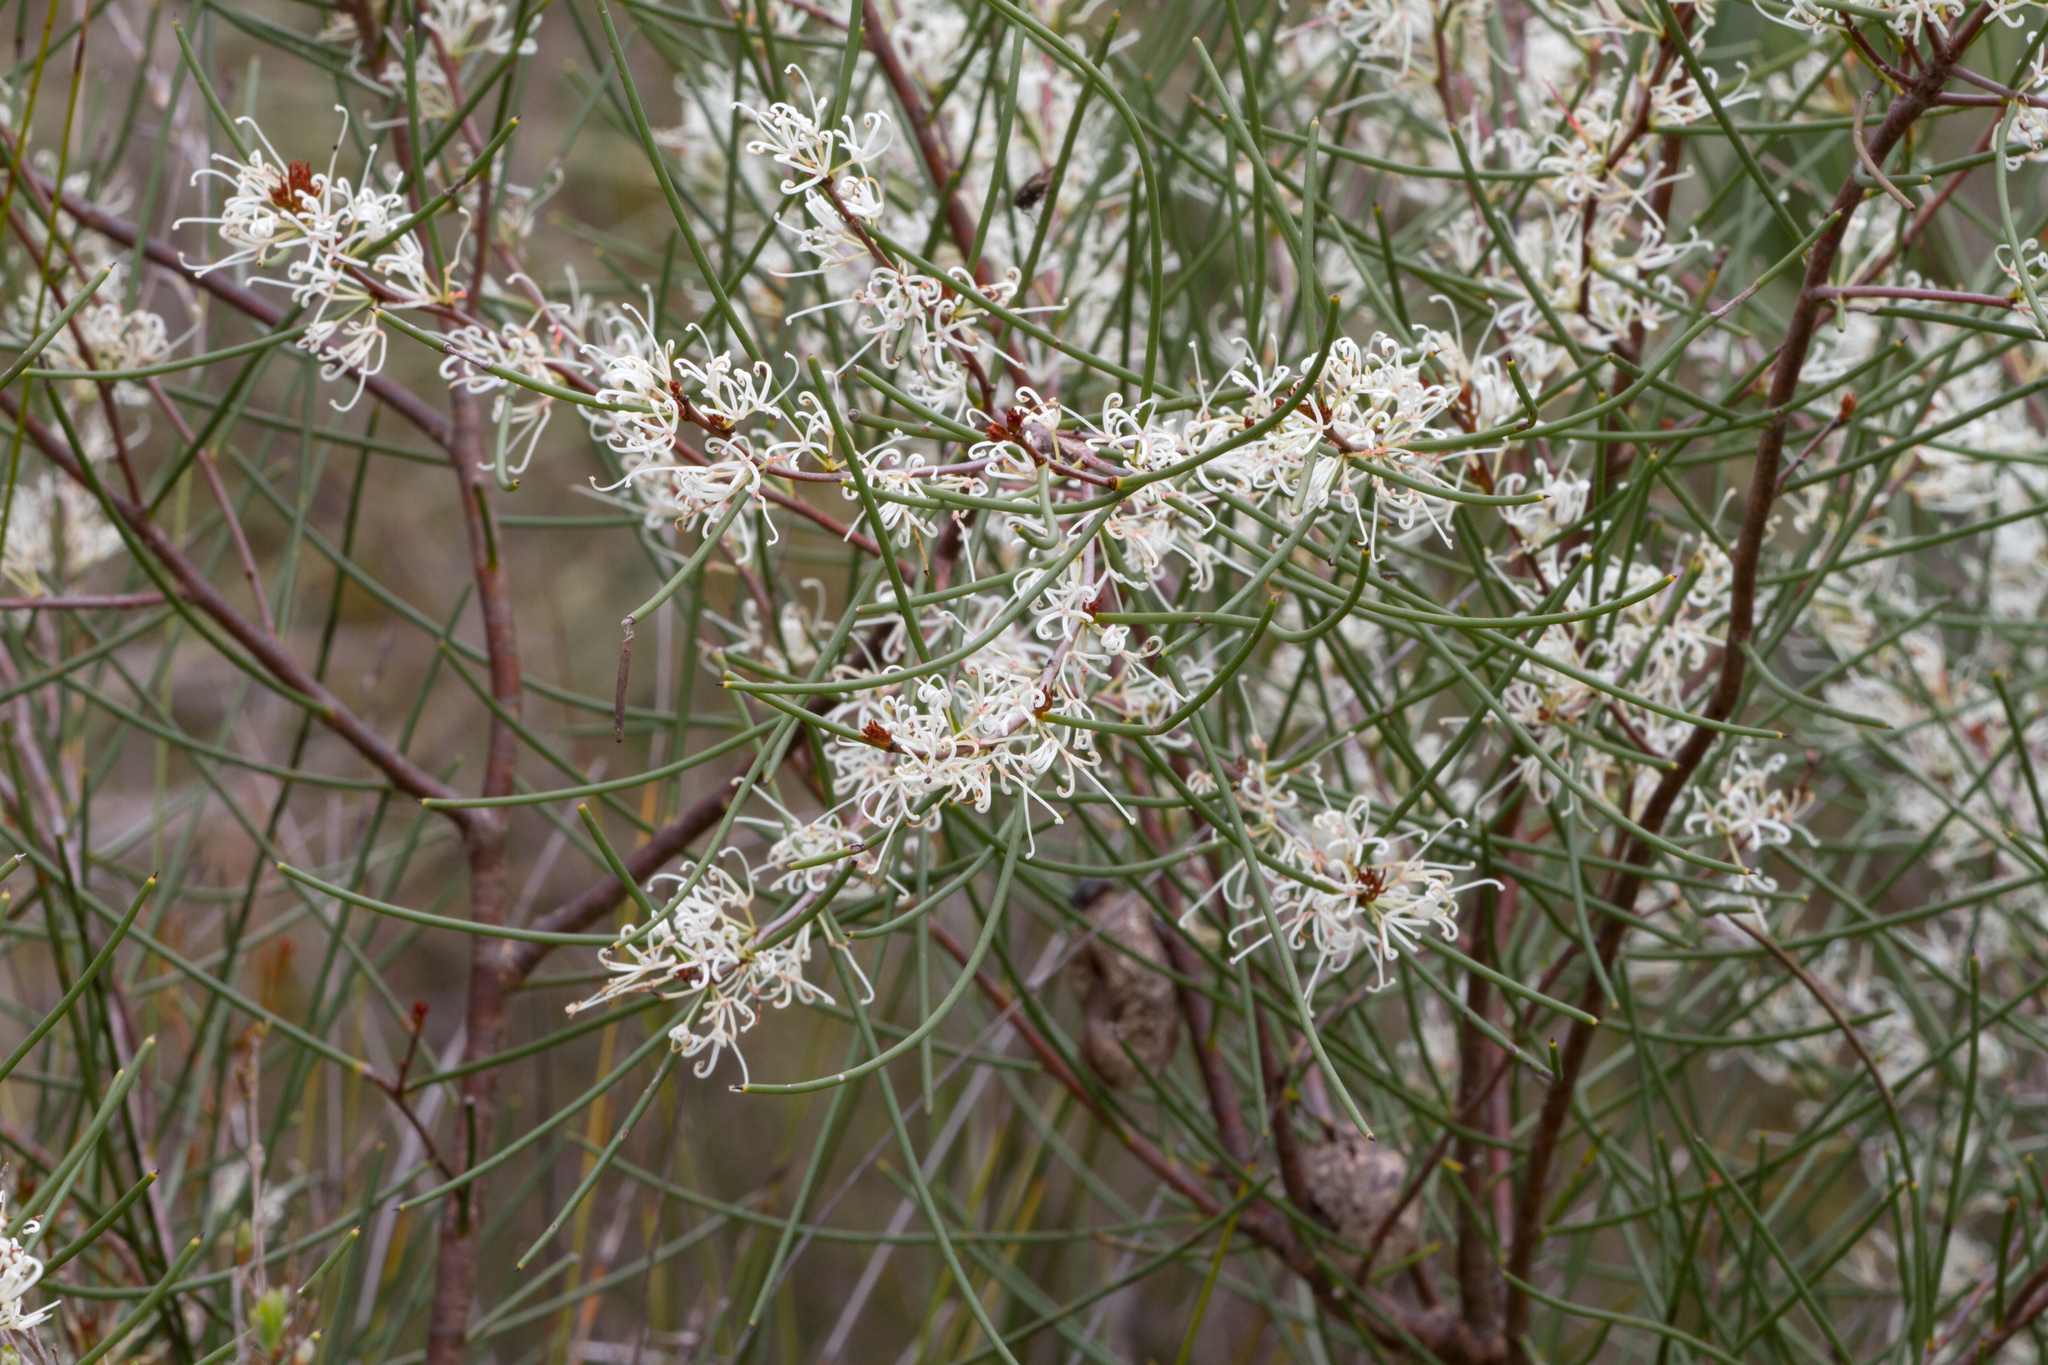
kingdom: Plantae
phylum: Tracheophyta
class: Magnoliopsida
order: Proteales
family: Proteaceae
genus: Hakea
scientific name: Hakea rostrata
